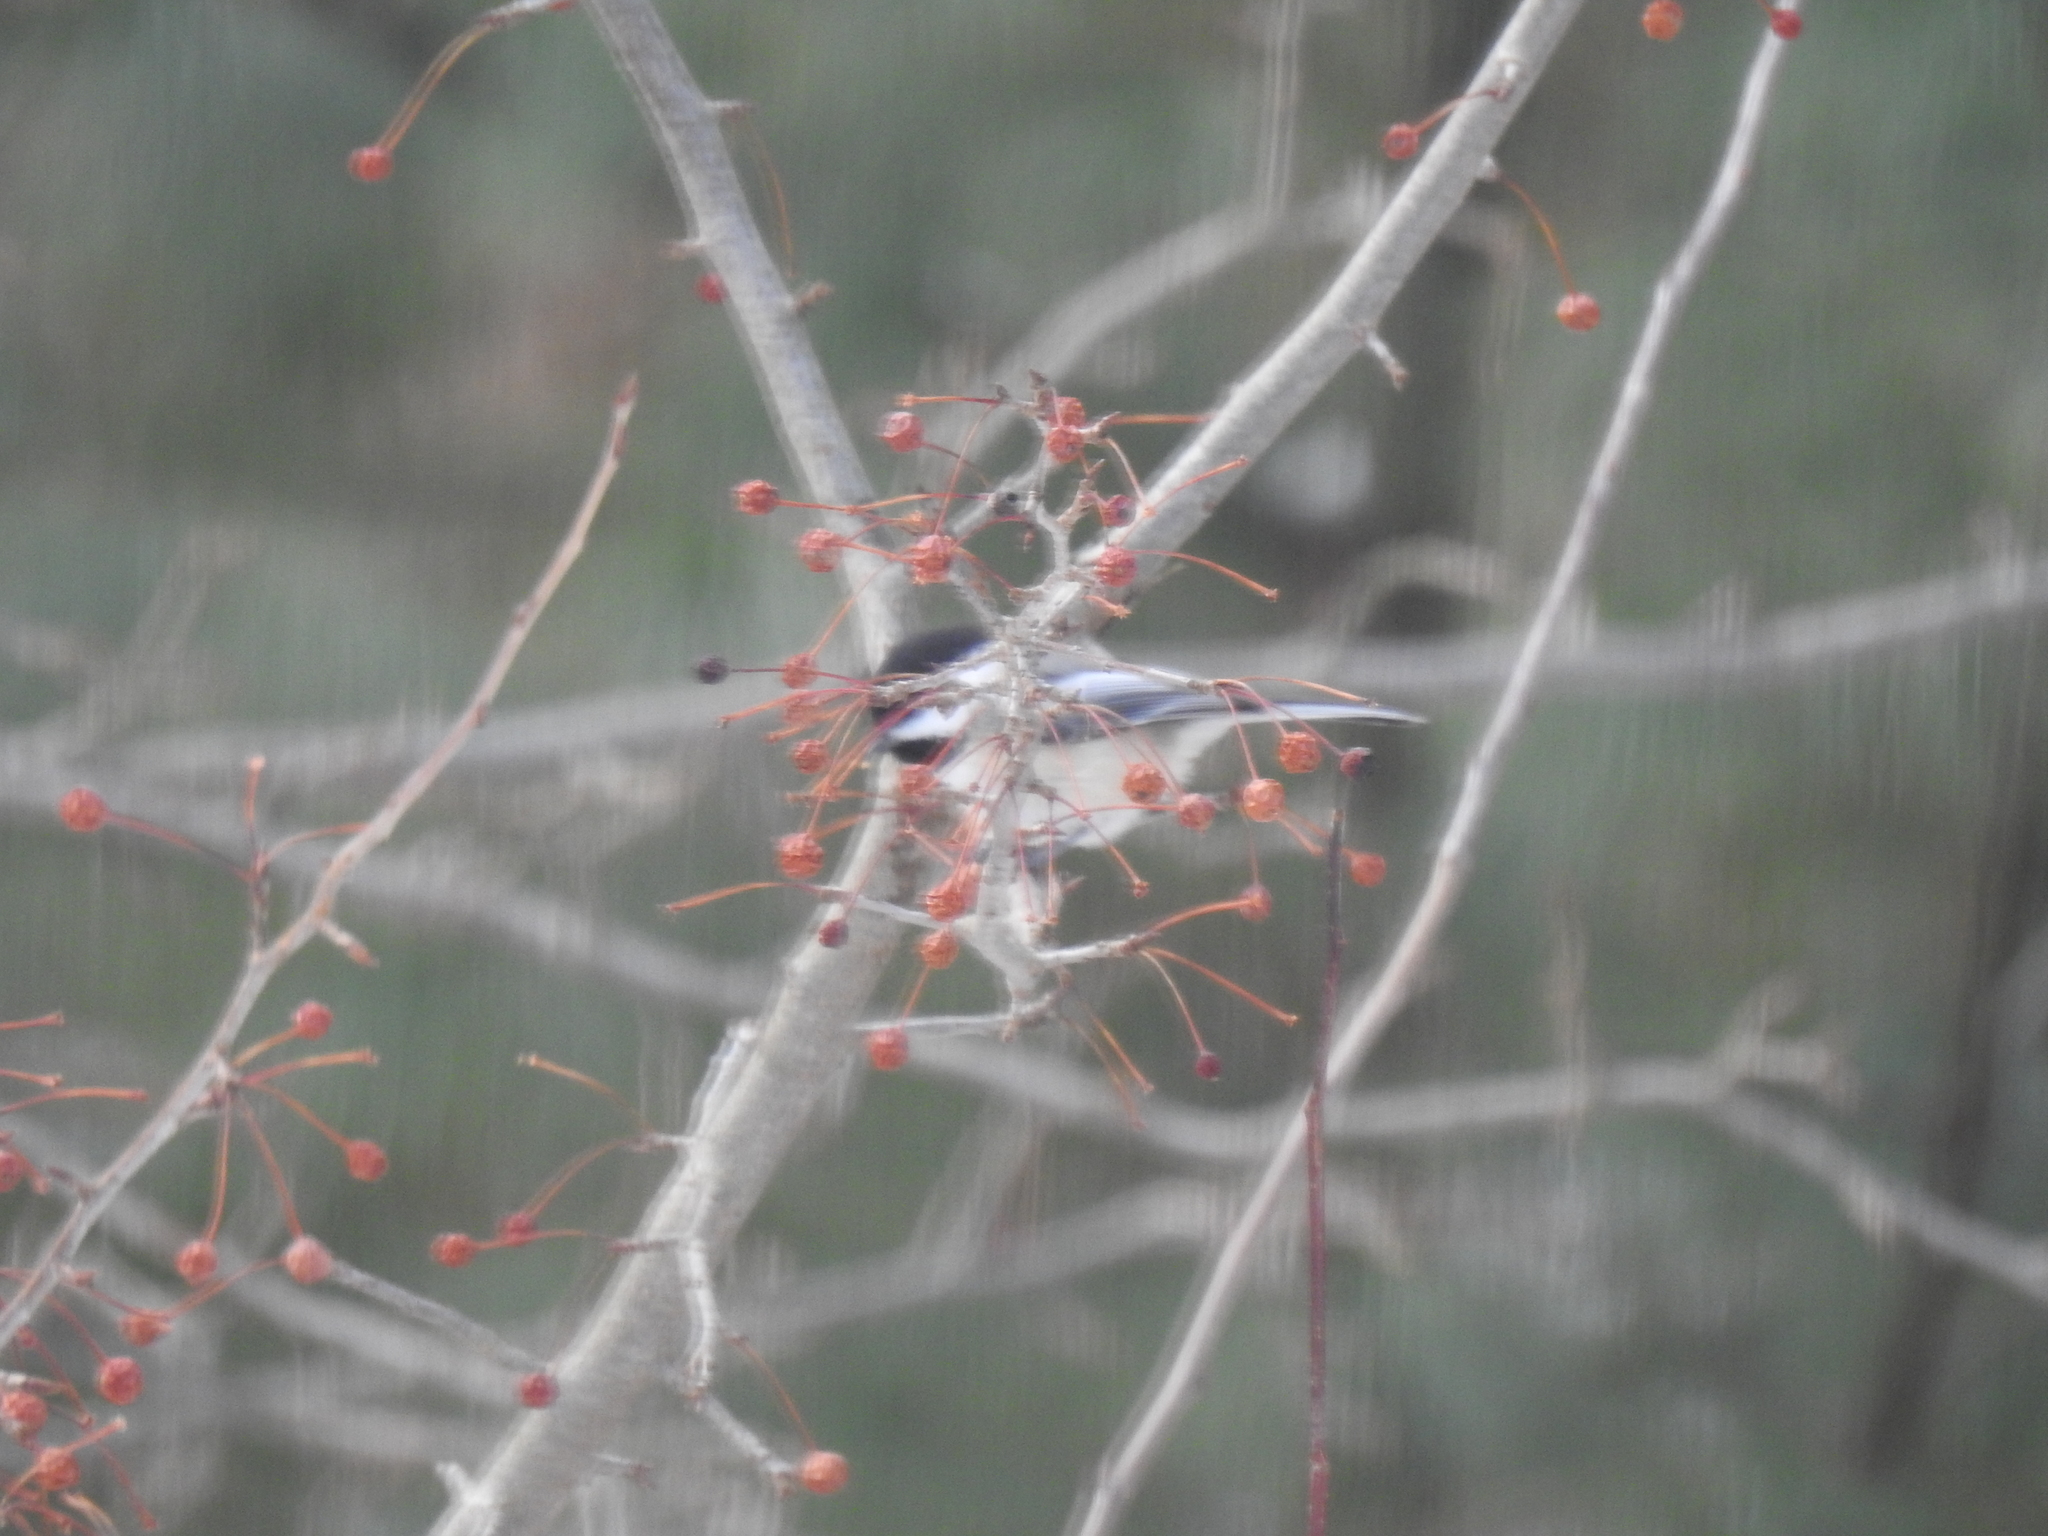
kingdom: Animalia
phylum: Chordata
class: Aves
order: Passeriformes
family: Paridae
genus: Poecile
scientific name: Poecile atricapillus
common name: Black-capped chickadee
